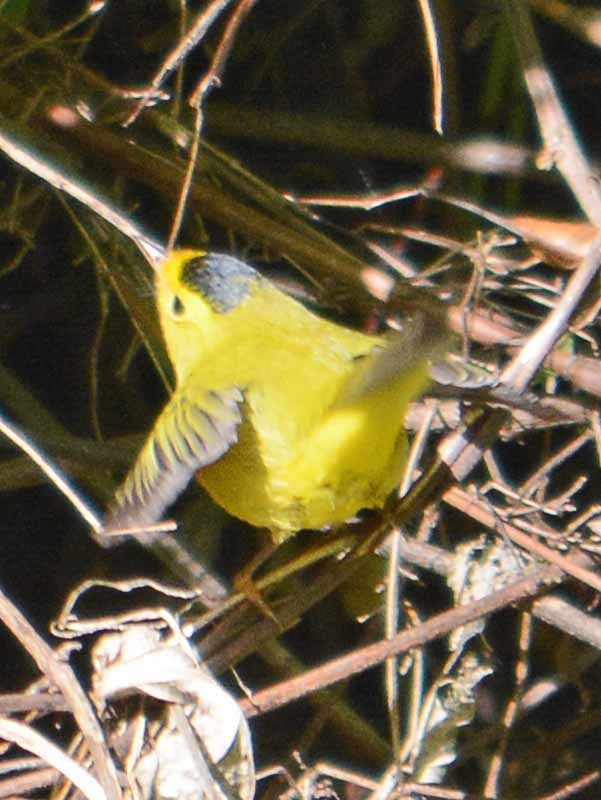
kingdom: Animalia
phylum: Chordata
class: Aves
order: Passeriformes
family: Parulidae
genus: Cardellina
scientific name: Cardellina pusilla
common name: Wilson's warbler
